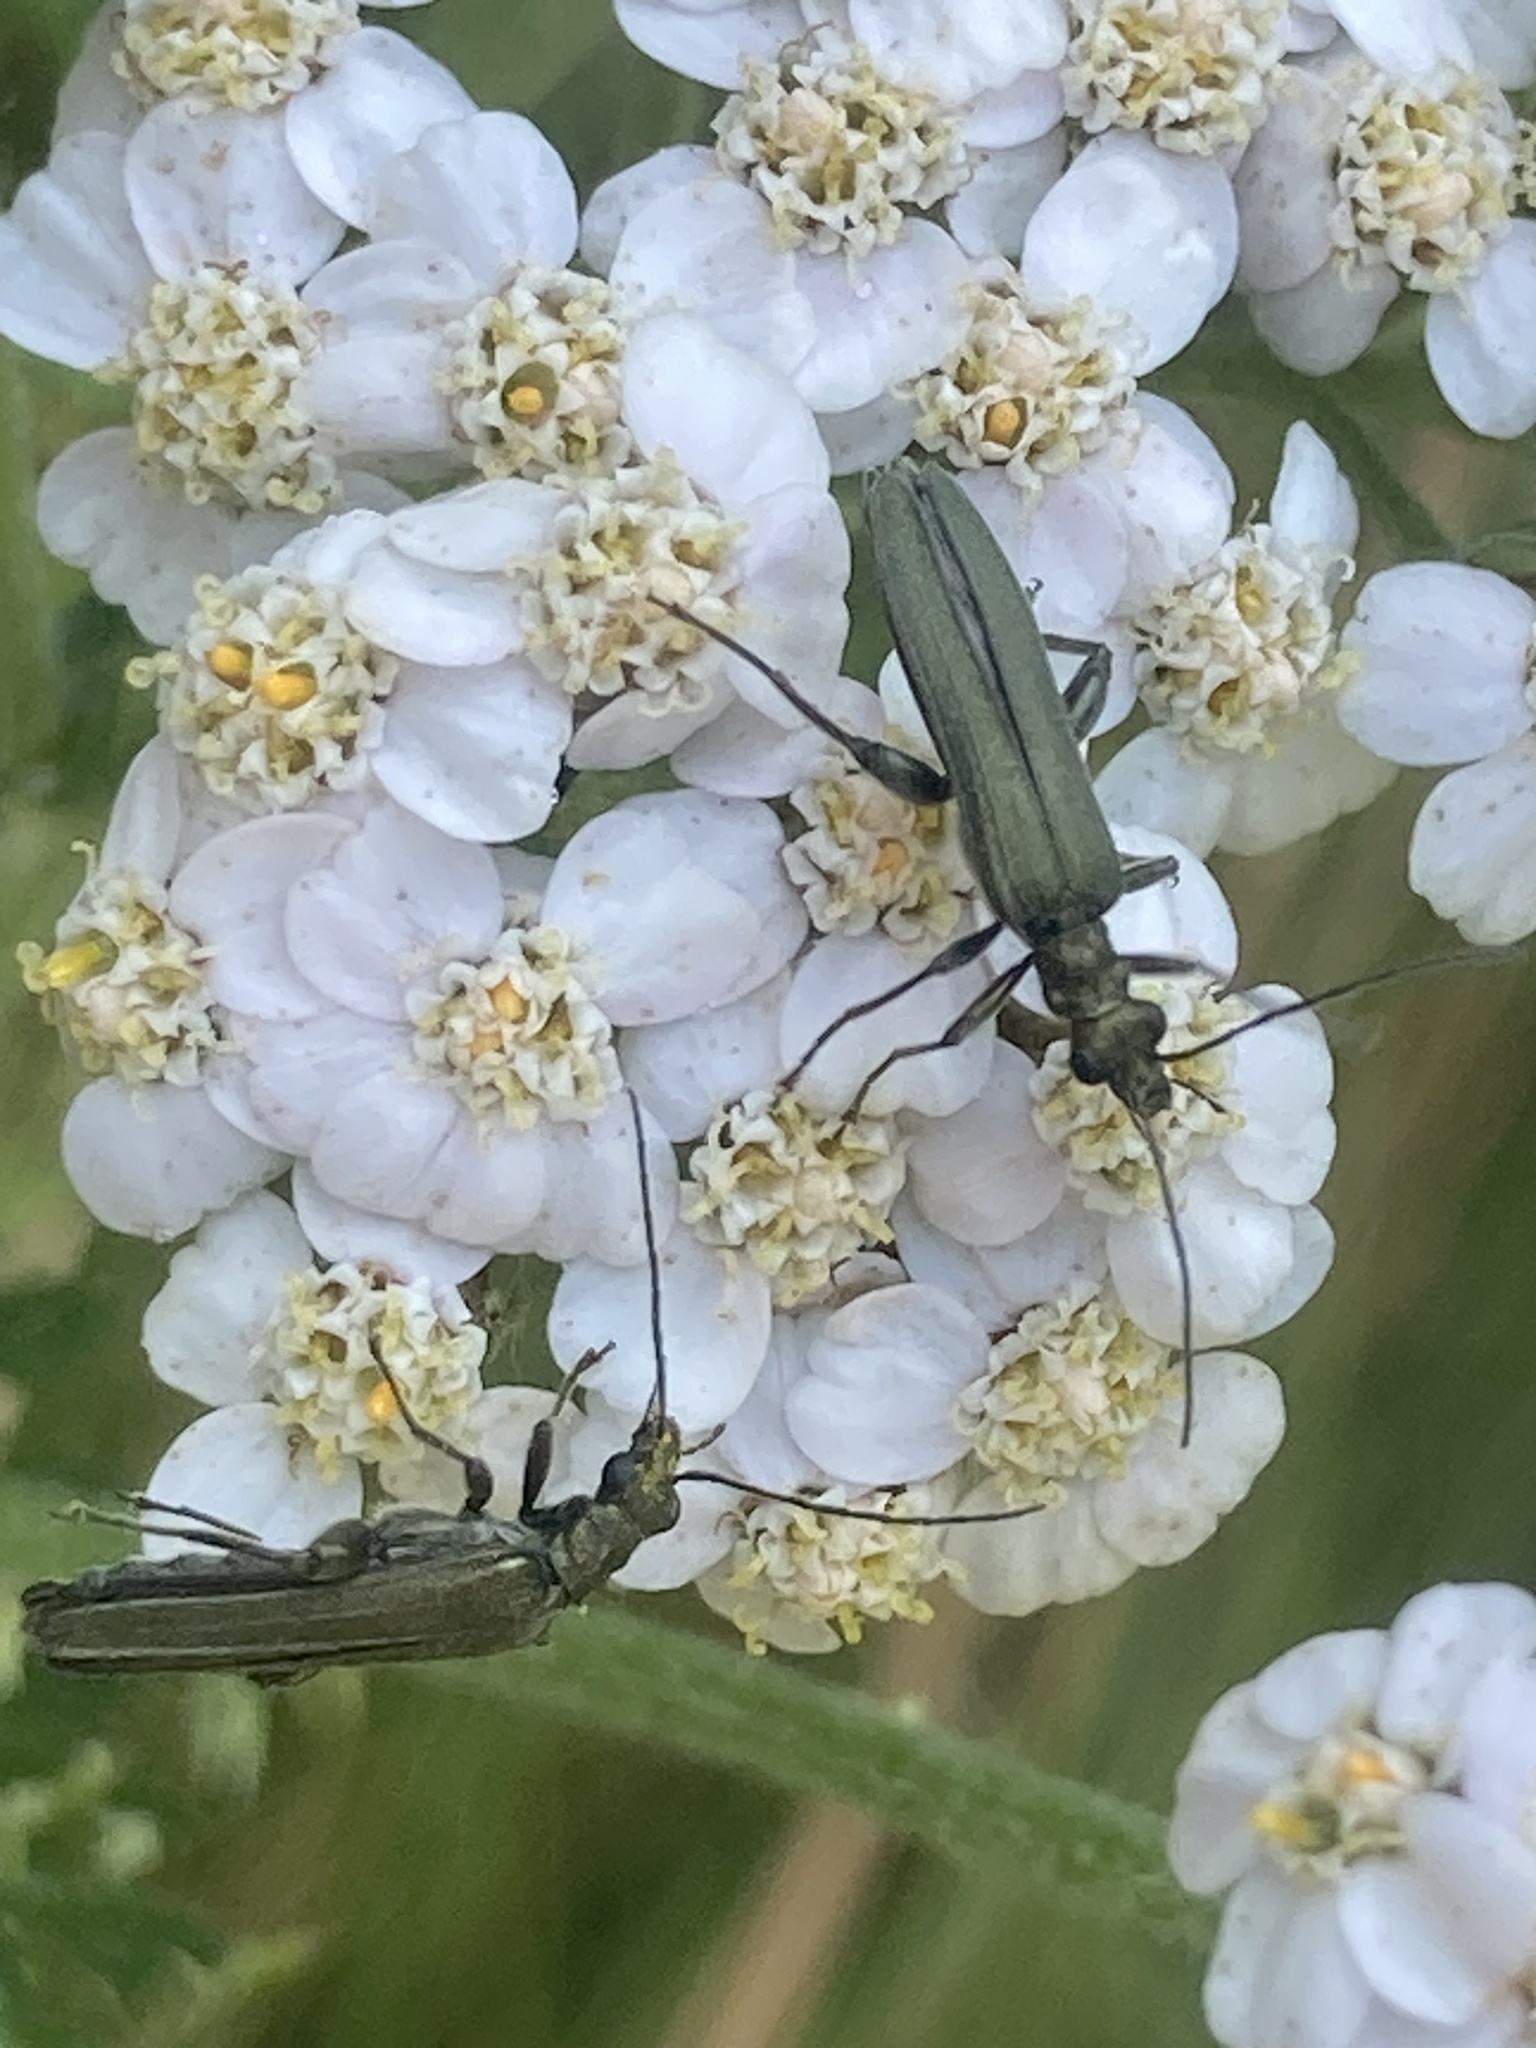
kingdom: Animalia
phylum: Arthropoda
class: Insecta
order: Coleoptera
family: Oedemeridae
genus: Oedemera
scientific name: Oedemera virescens
